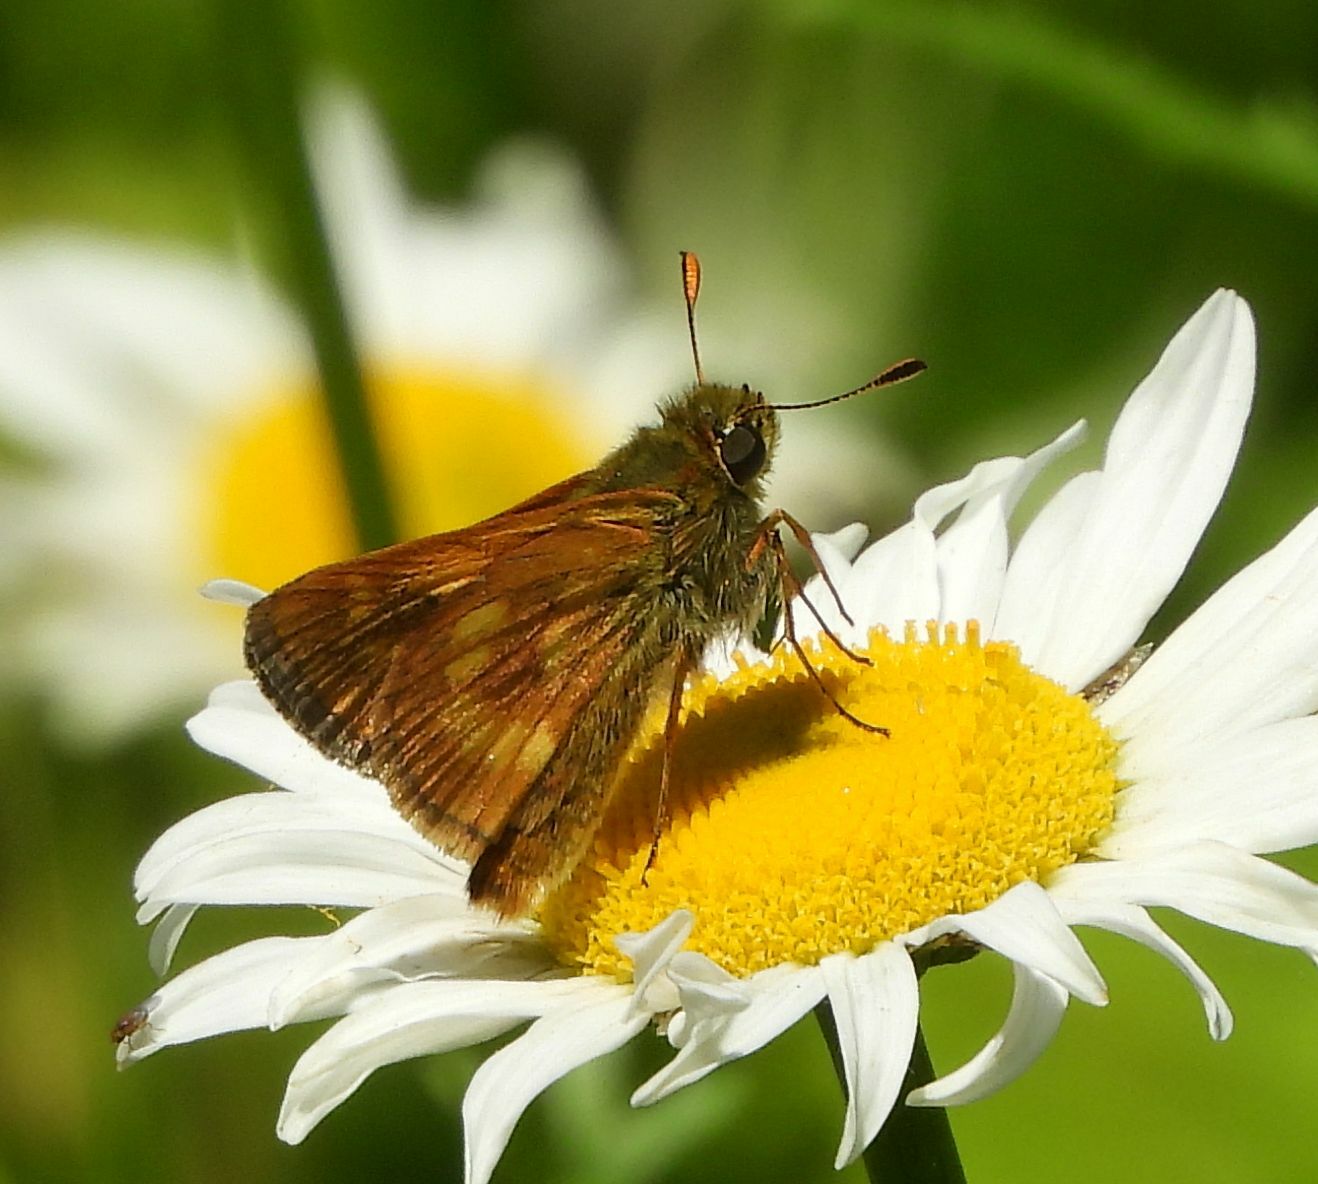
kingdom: Animalia
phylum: Arthropoda
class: Insecta
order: Lepidoptera
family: Hesperiidae
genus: Polites
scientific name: Polites mystic
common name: Long dash
